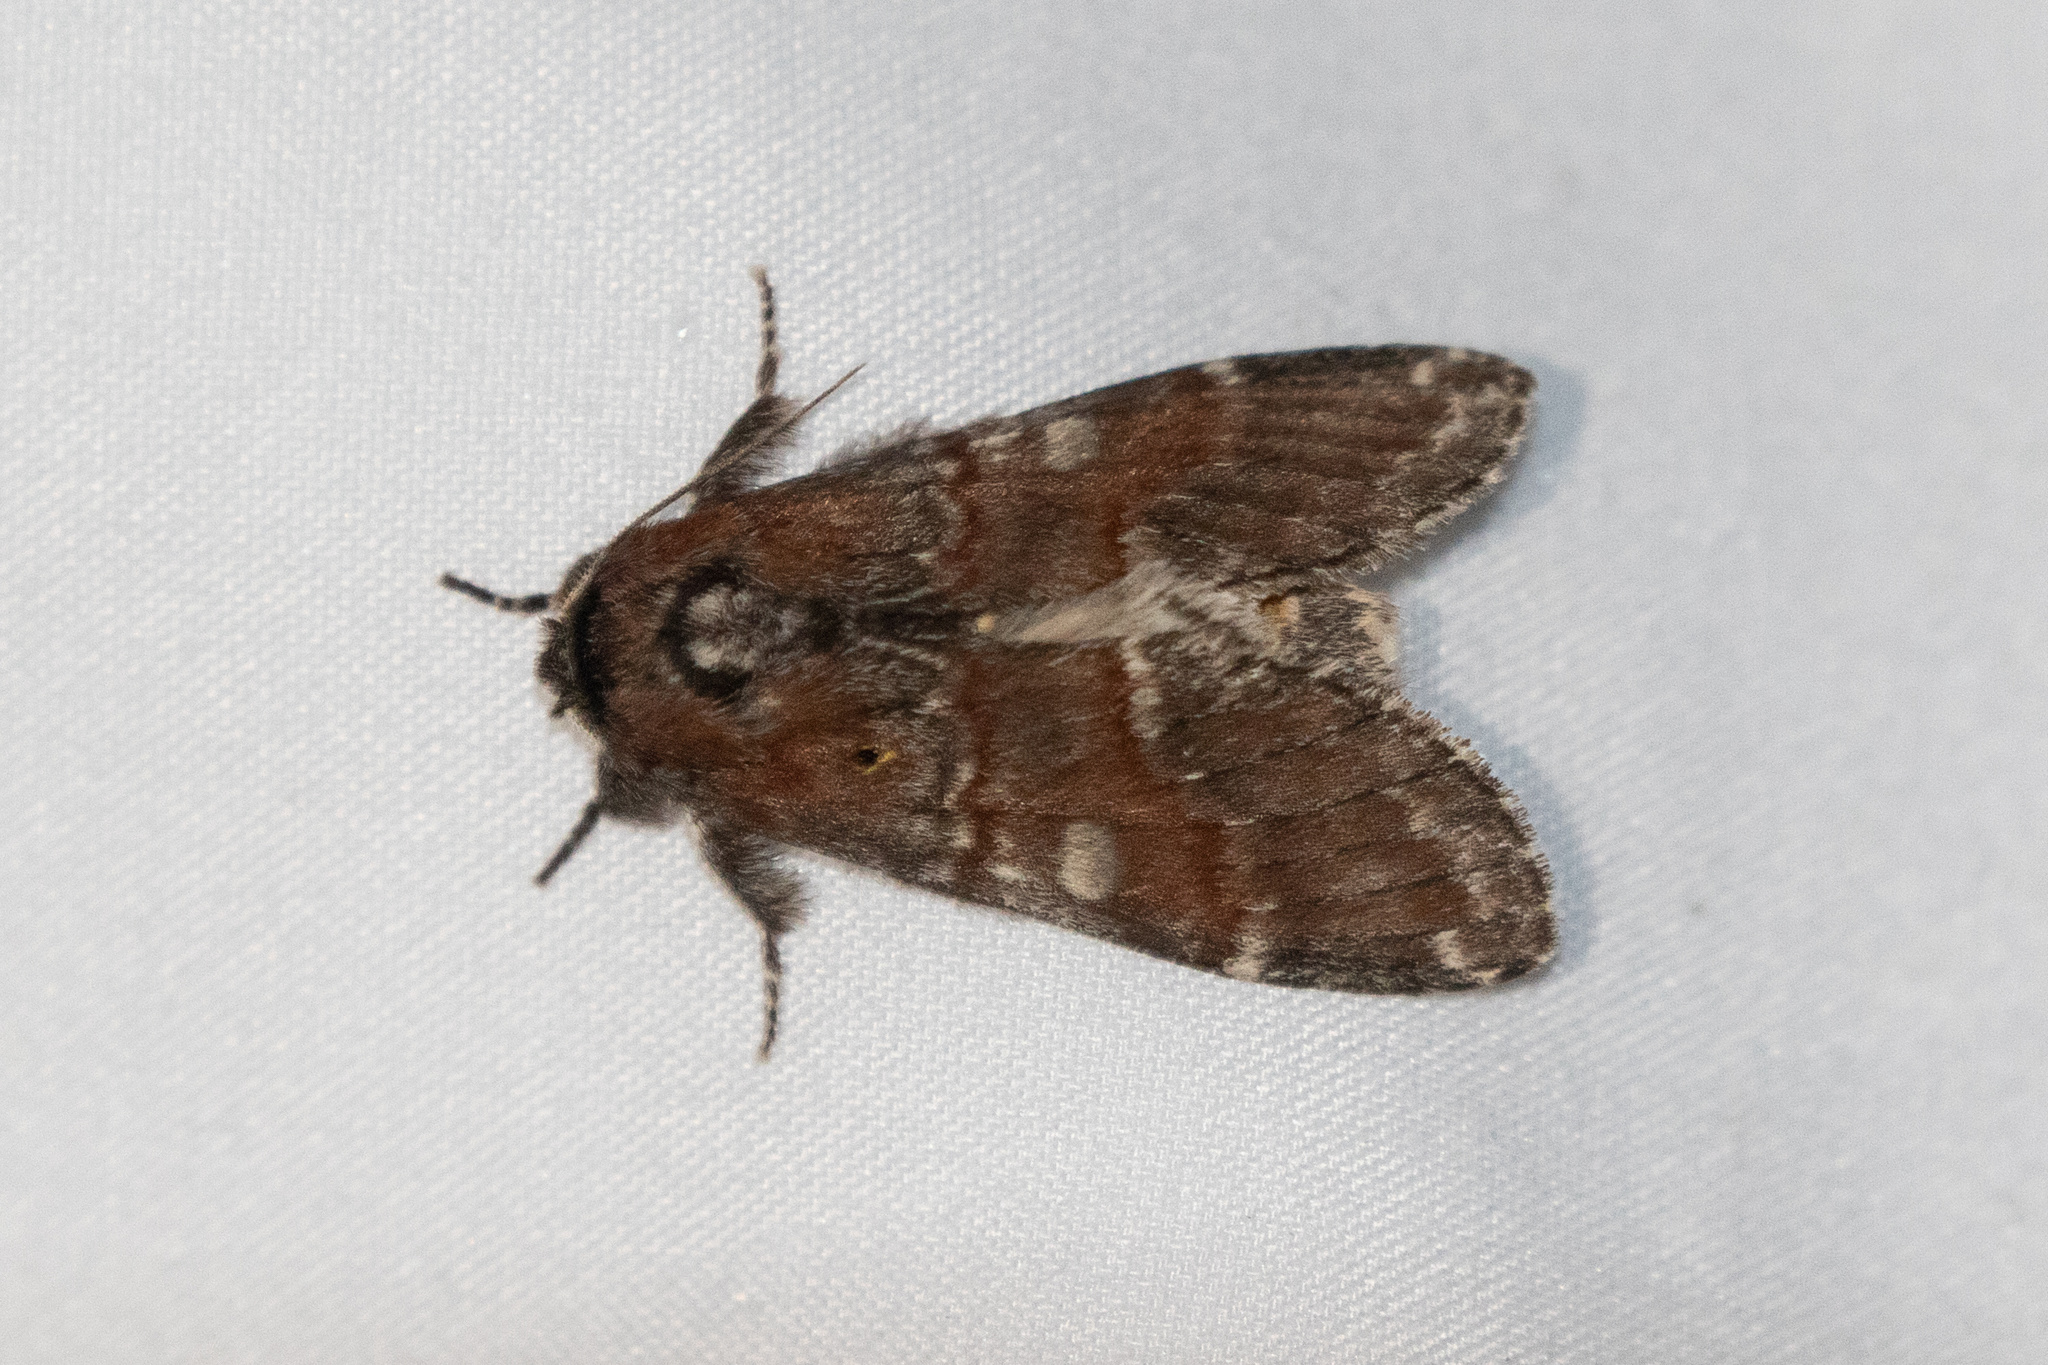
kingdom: Animalia
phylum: Arthropoda
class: Insecta
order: Lepidoptera
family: Notodontidae
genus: Peridea
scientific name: Peridea ferruginea
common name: Chocolate prominent
